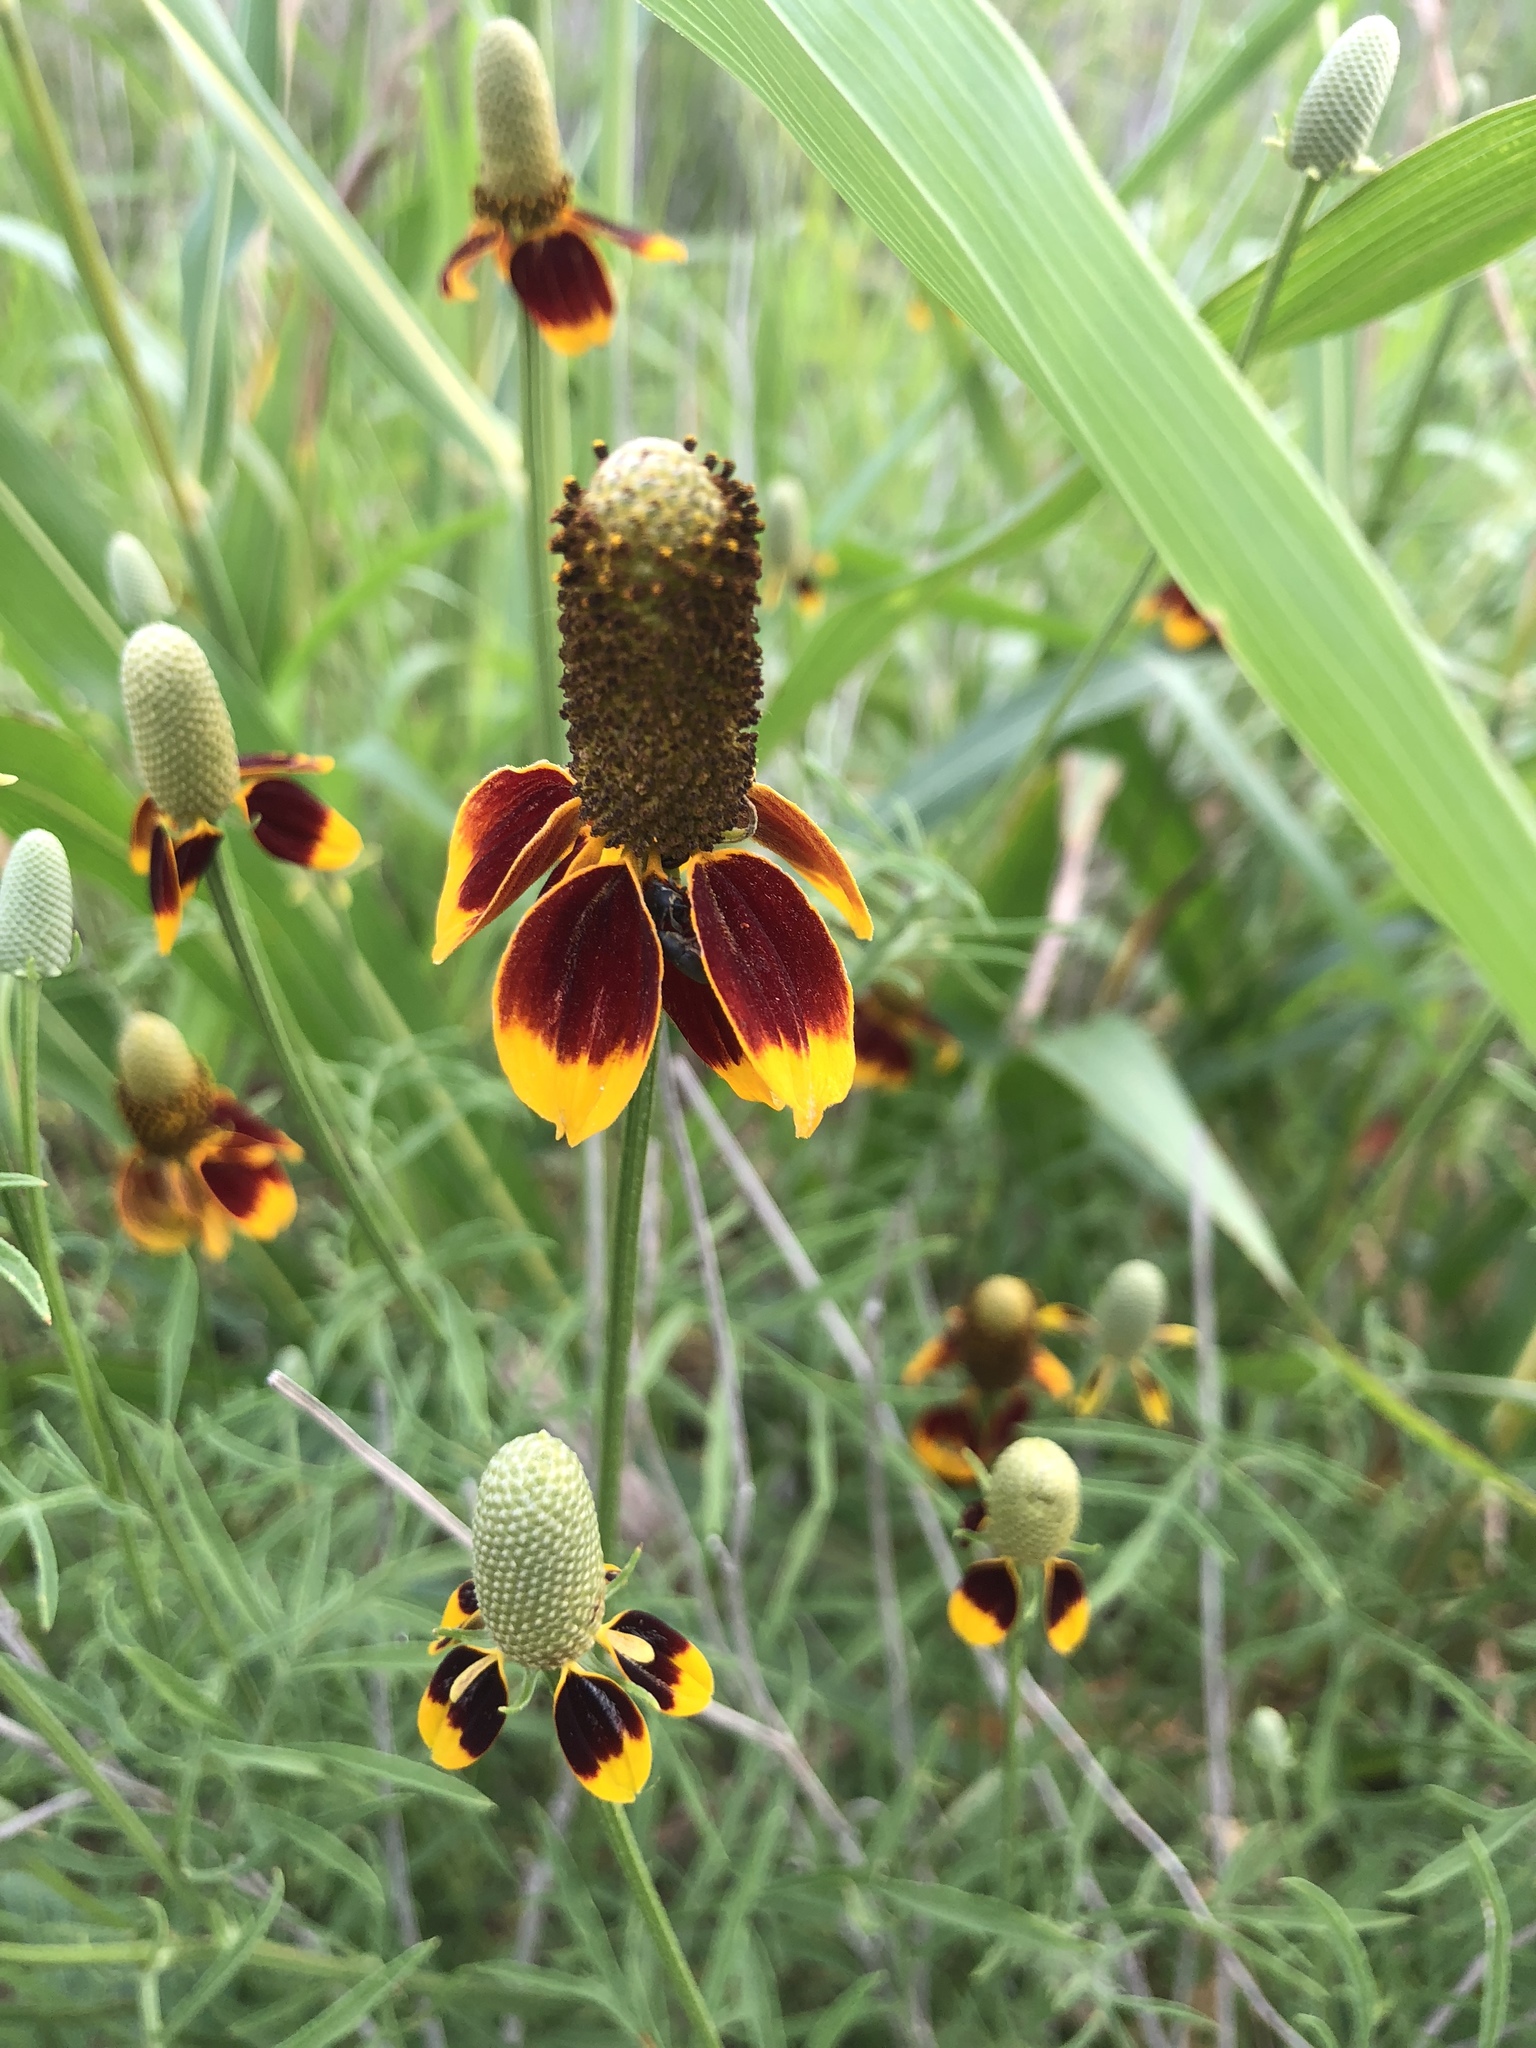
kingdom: Plantae
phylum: Tracheophyta
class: Magnoliopsida
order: Asterales
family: Asteraceae
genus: Ratibida
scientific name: Ratibida columnifera
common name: Prairie coneflower
